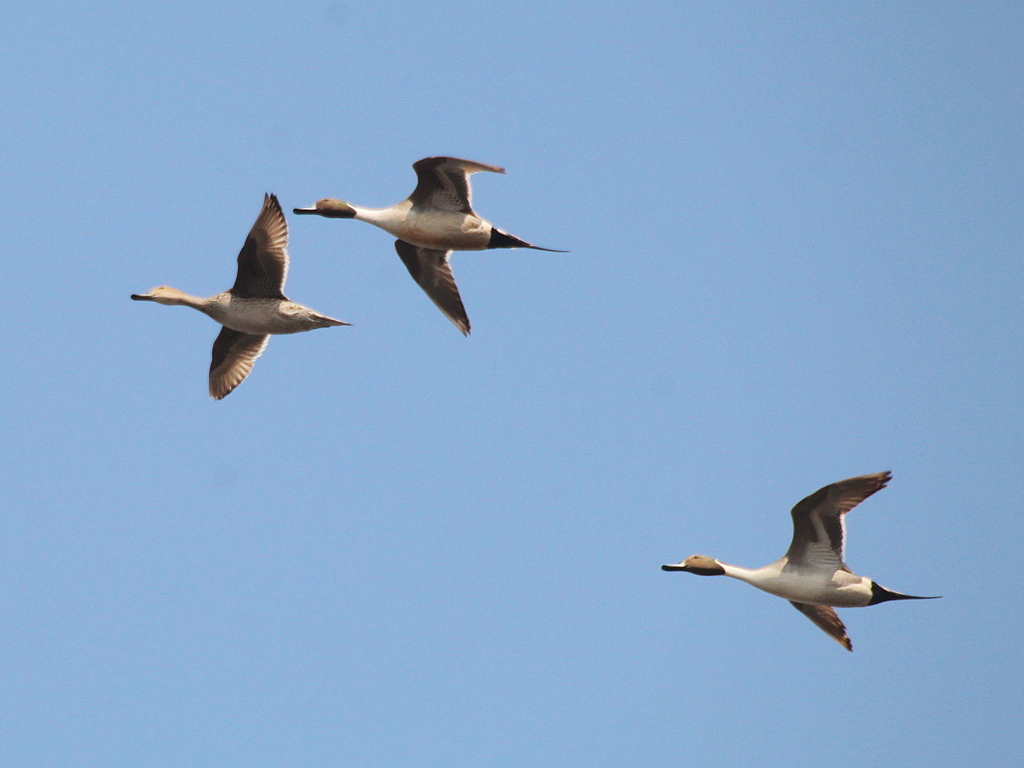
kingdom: Animalia
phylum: Chordata
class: Aves
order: Anseriformes
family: Anatidae
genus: Anas
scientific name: Anas acuta
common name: Northern pintail
